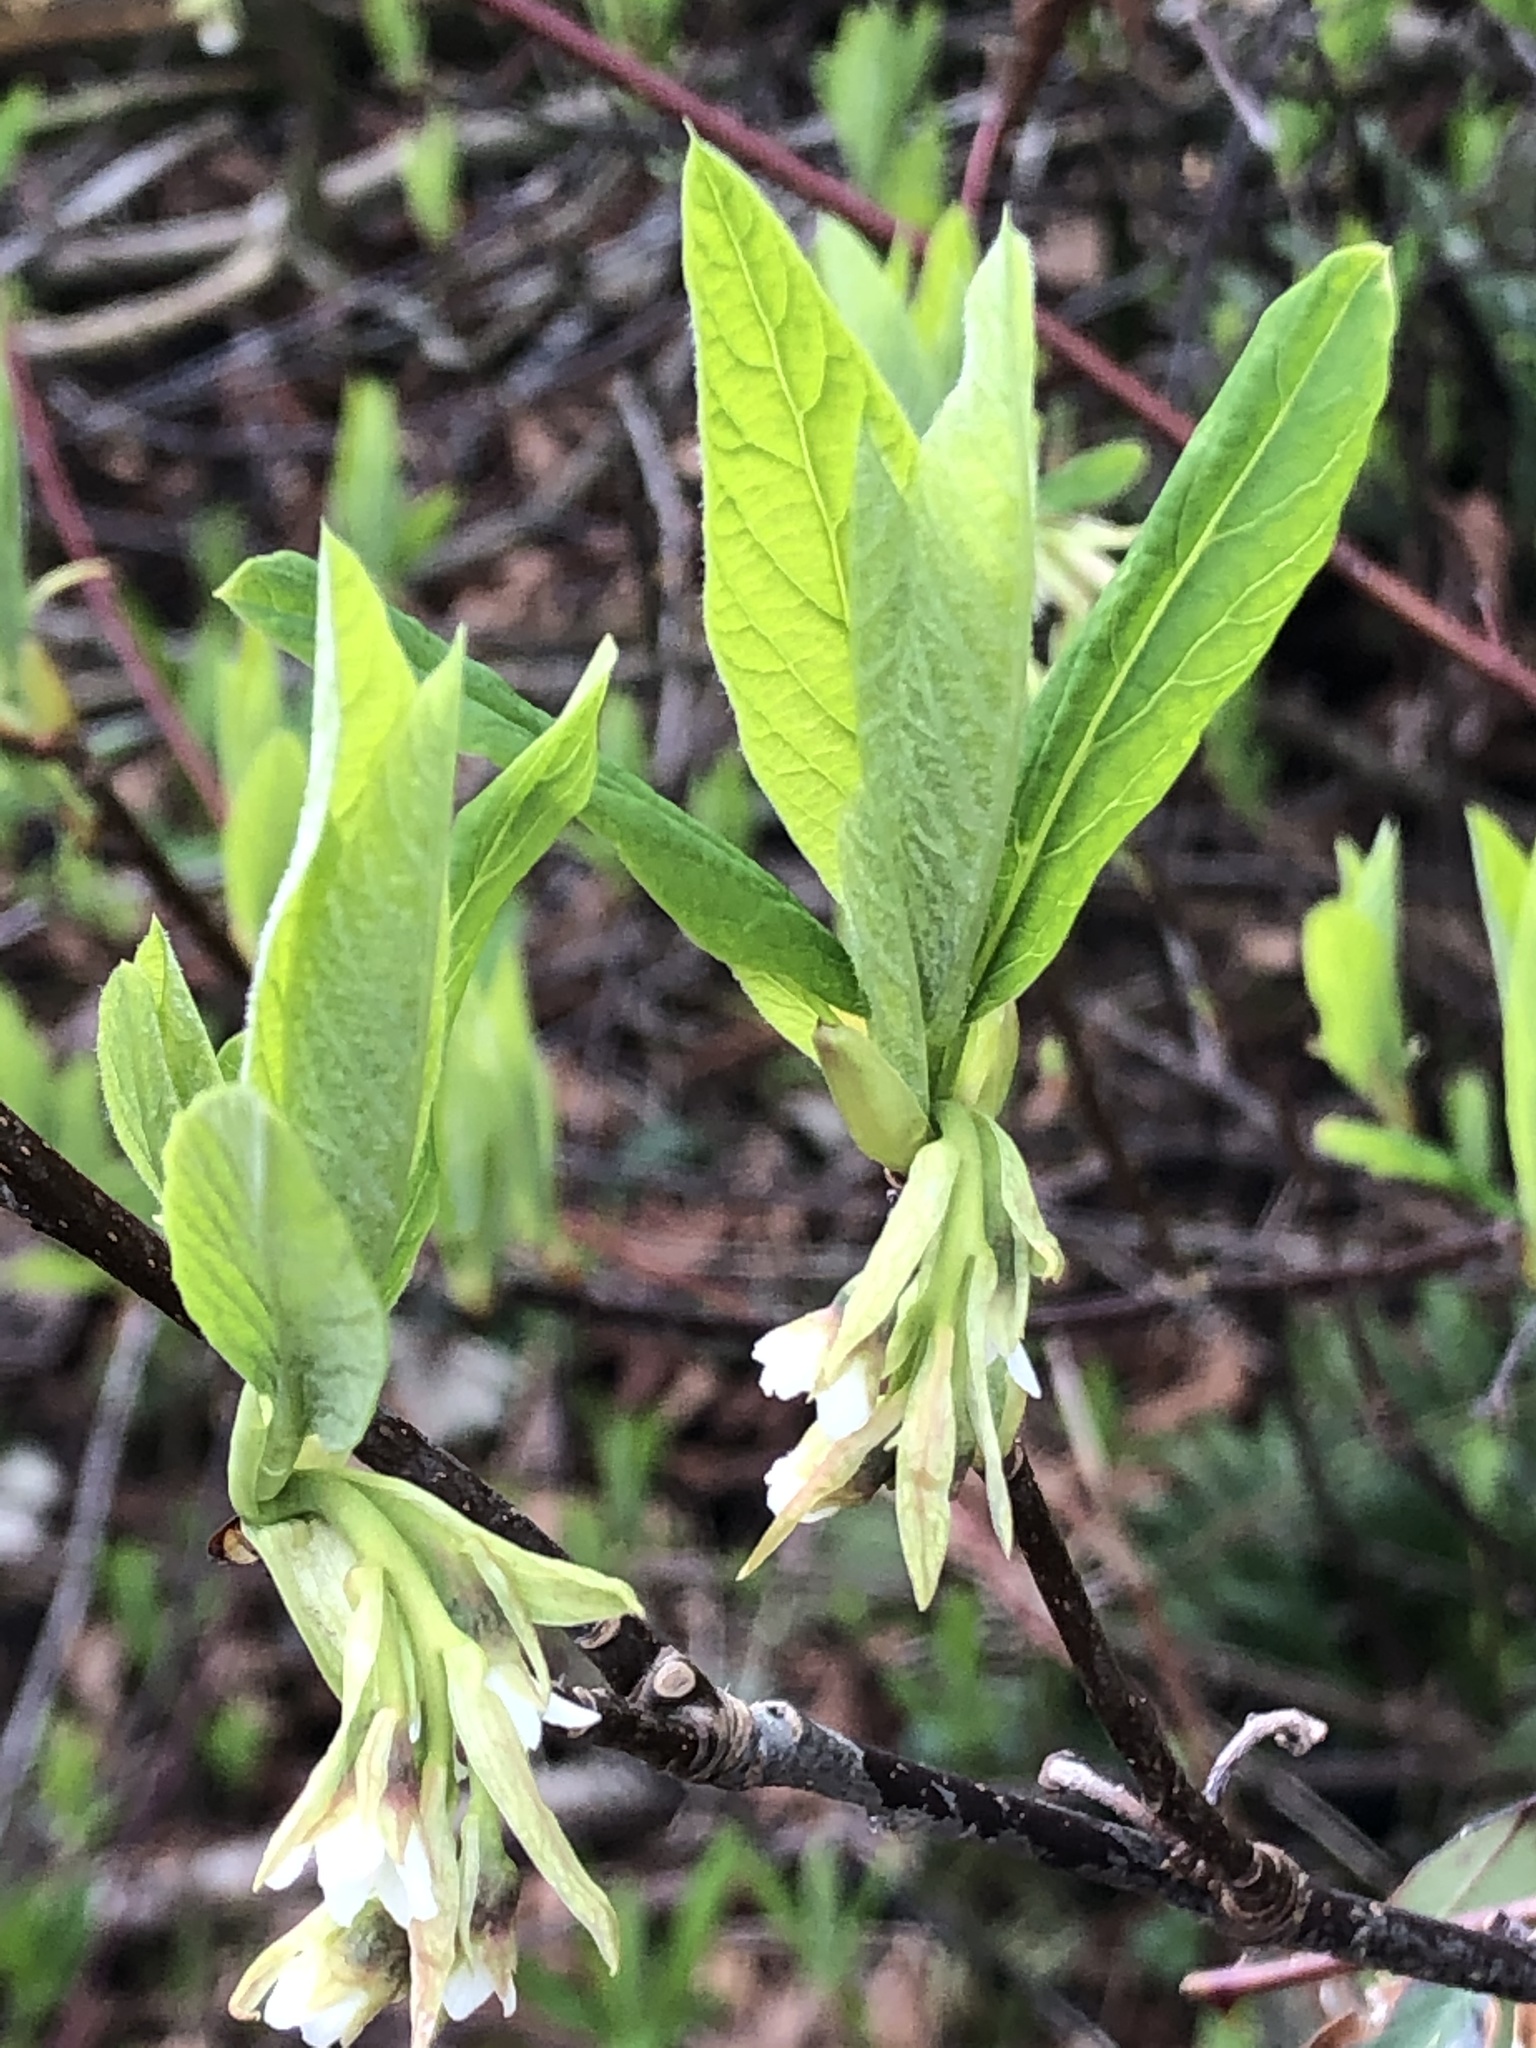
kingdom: Plantae
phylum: Tracheophyta
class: Magnoliopsida
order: Rosales
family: Rosaceae
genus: Oemleria
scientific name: Oemleria cerasiformis
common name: Osoberry
